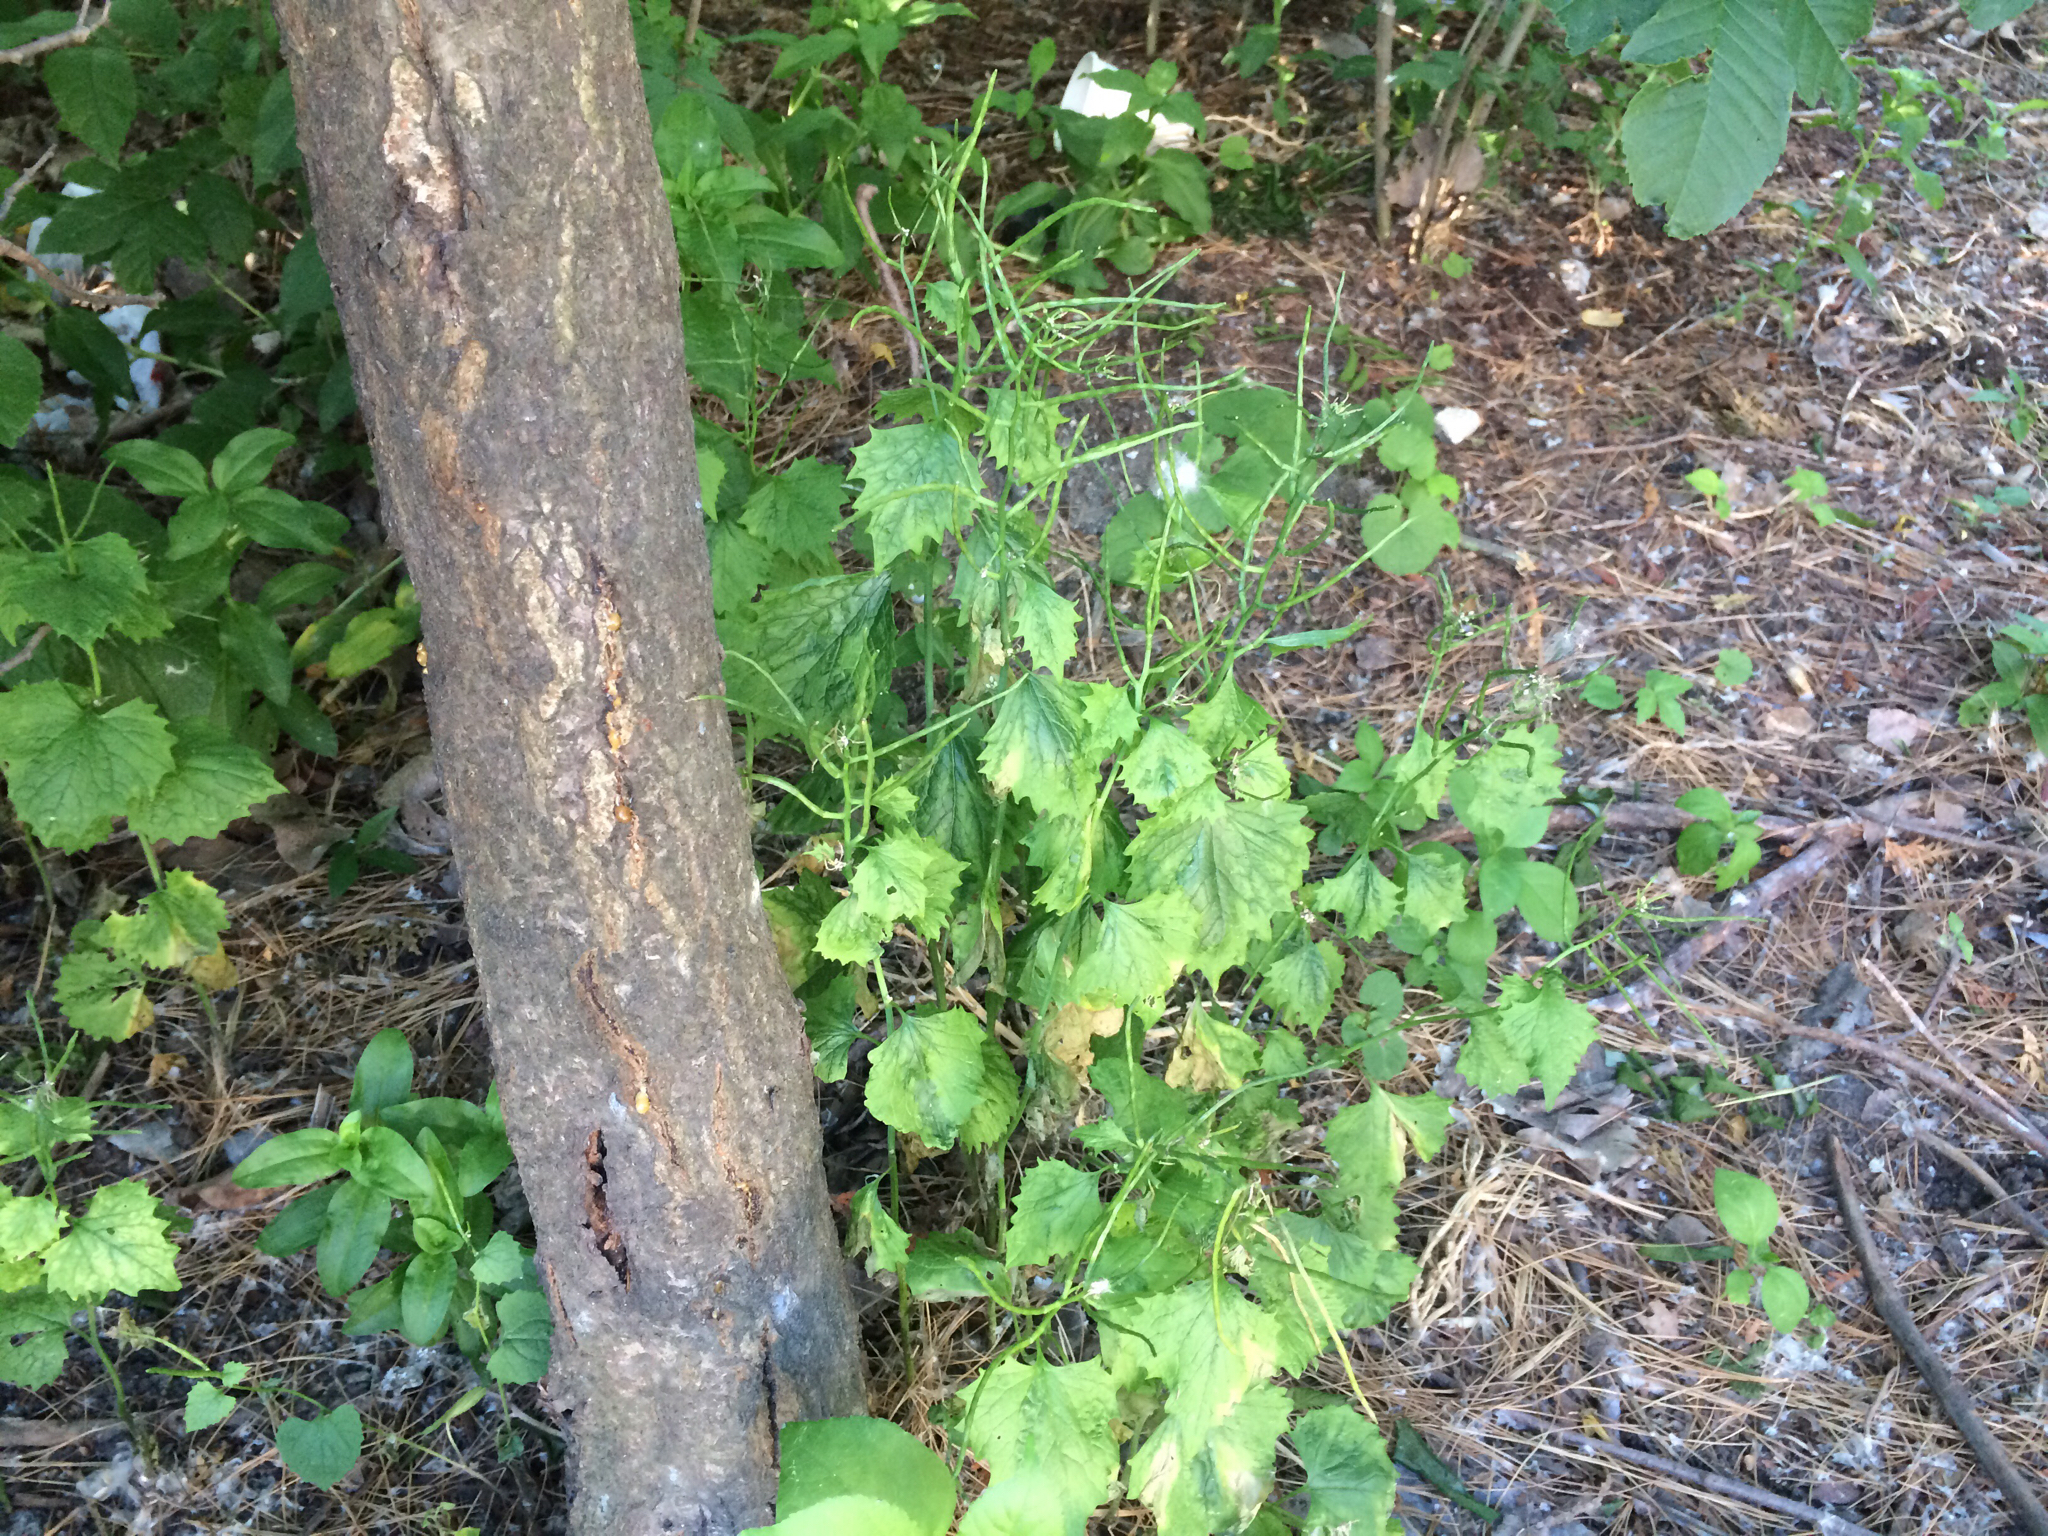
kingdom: Plantae
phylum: Tracheophyta
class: Magnoliopsida
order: Brassicales
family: Brassicaceae
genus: Alliaria
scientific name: Alliaria petiolata
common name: Garlic mustard
